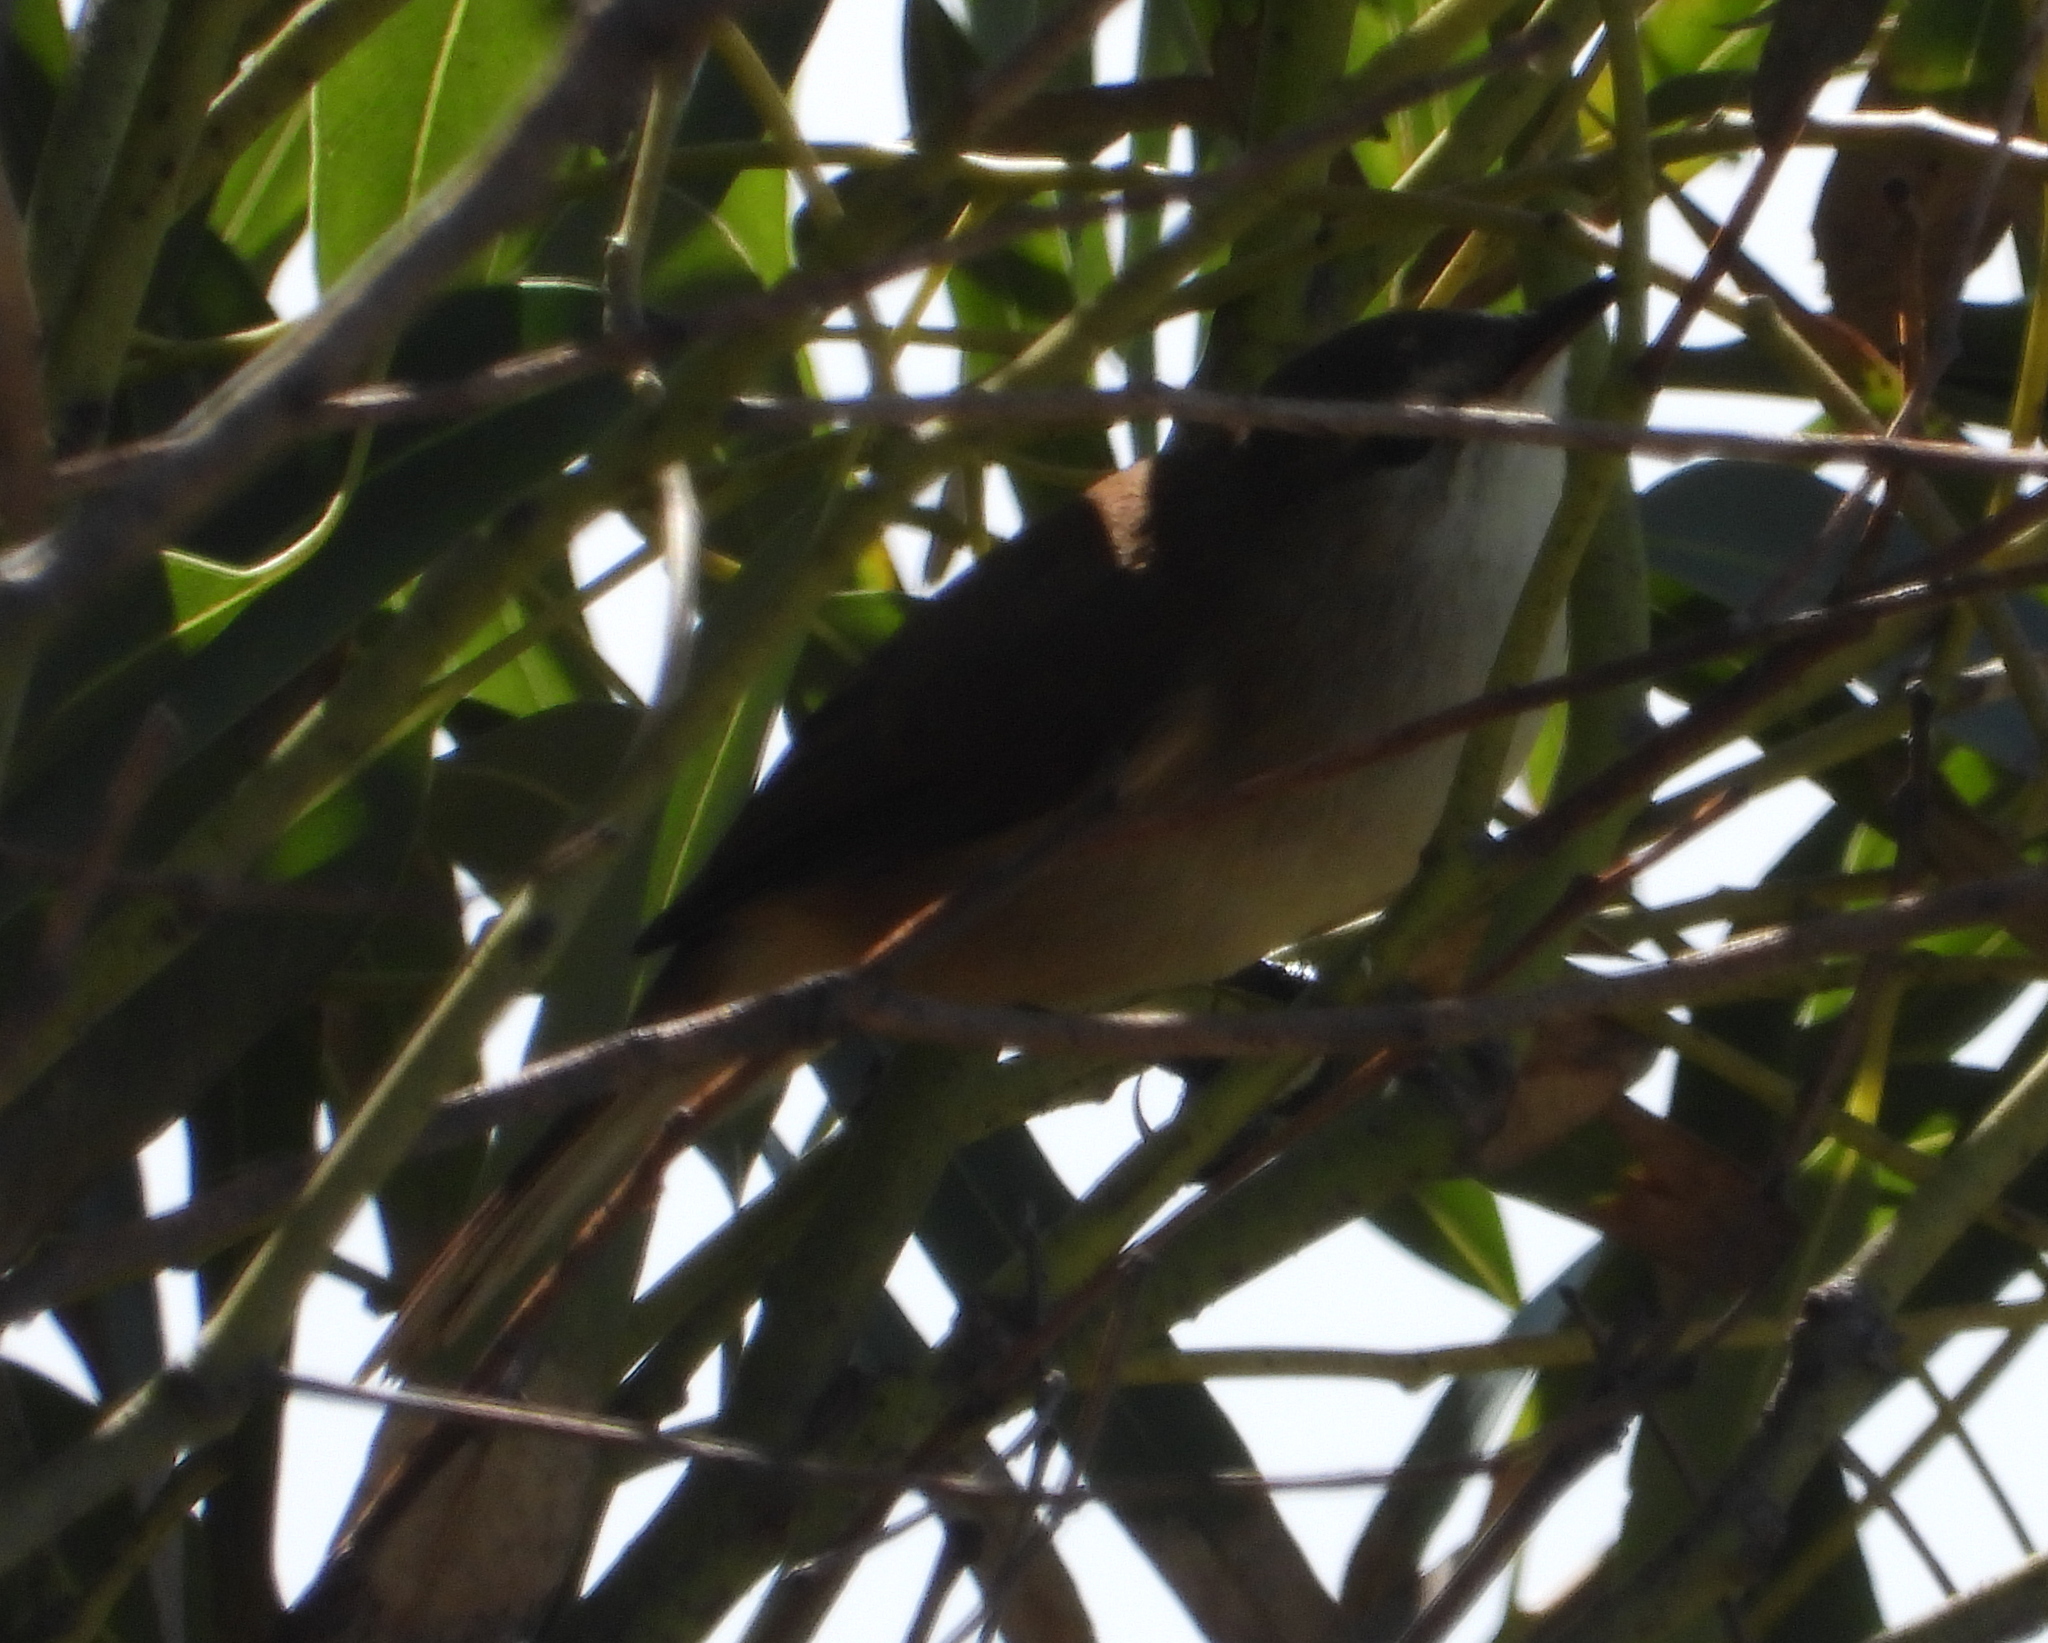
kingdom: Animalia
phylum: Chordata
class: Aves
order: Passeriformes
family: Acrocephalidae
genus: Acrocephalus
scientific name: Acrocephalus gracilirostris
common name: Lesser swamp warbler
